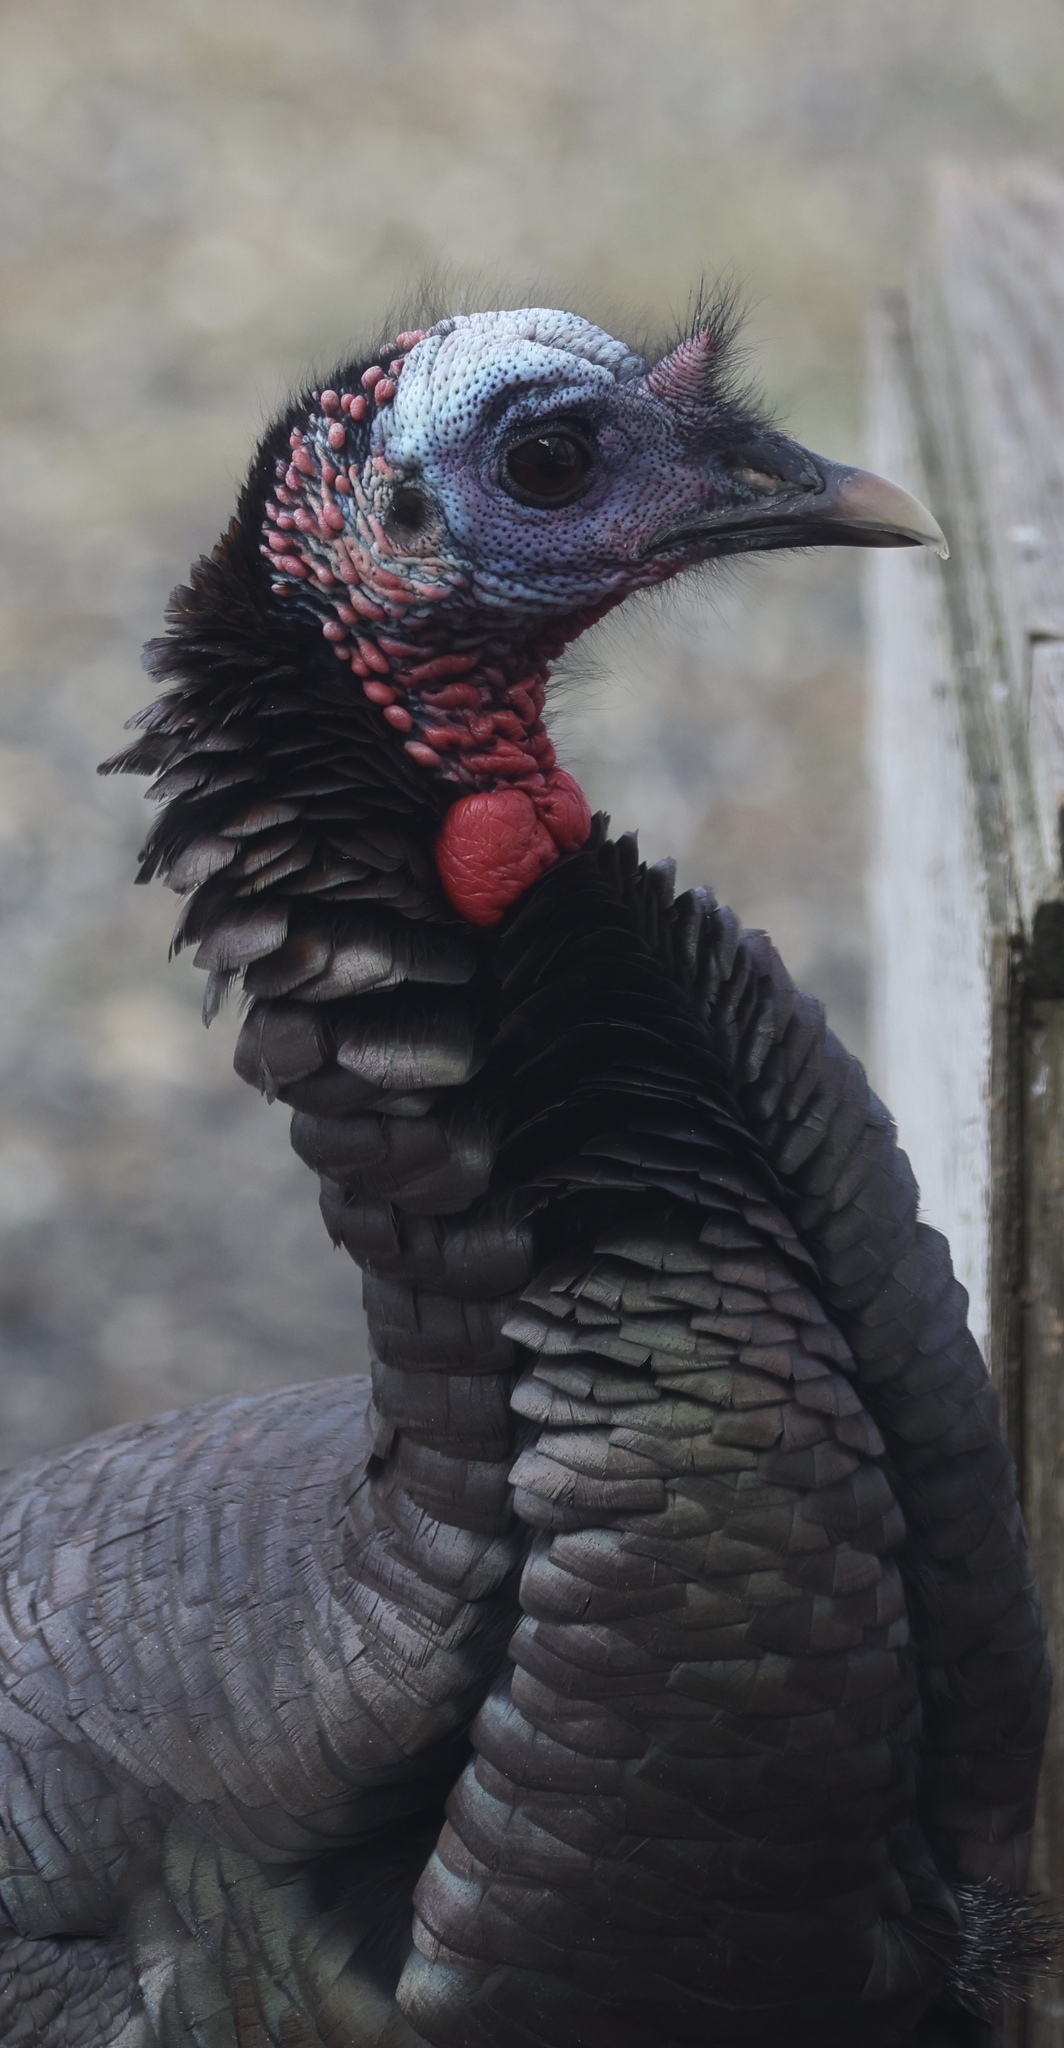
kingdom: Animalia
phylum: Chordata
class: Aves
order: Galliformes
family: Phasianidae
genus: Meleagris
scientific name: Meleagris gallopavo
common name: Wild turkey
